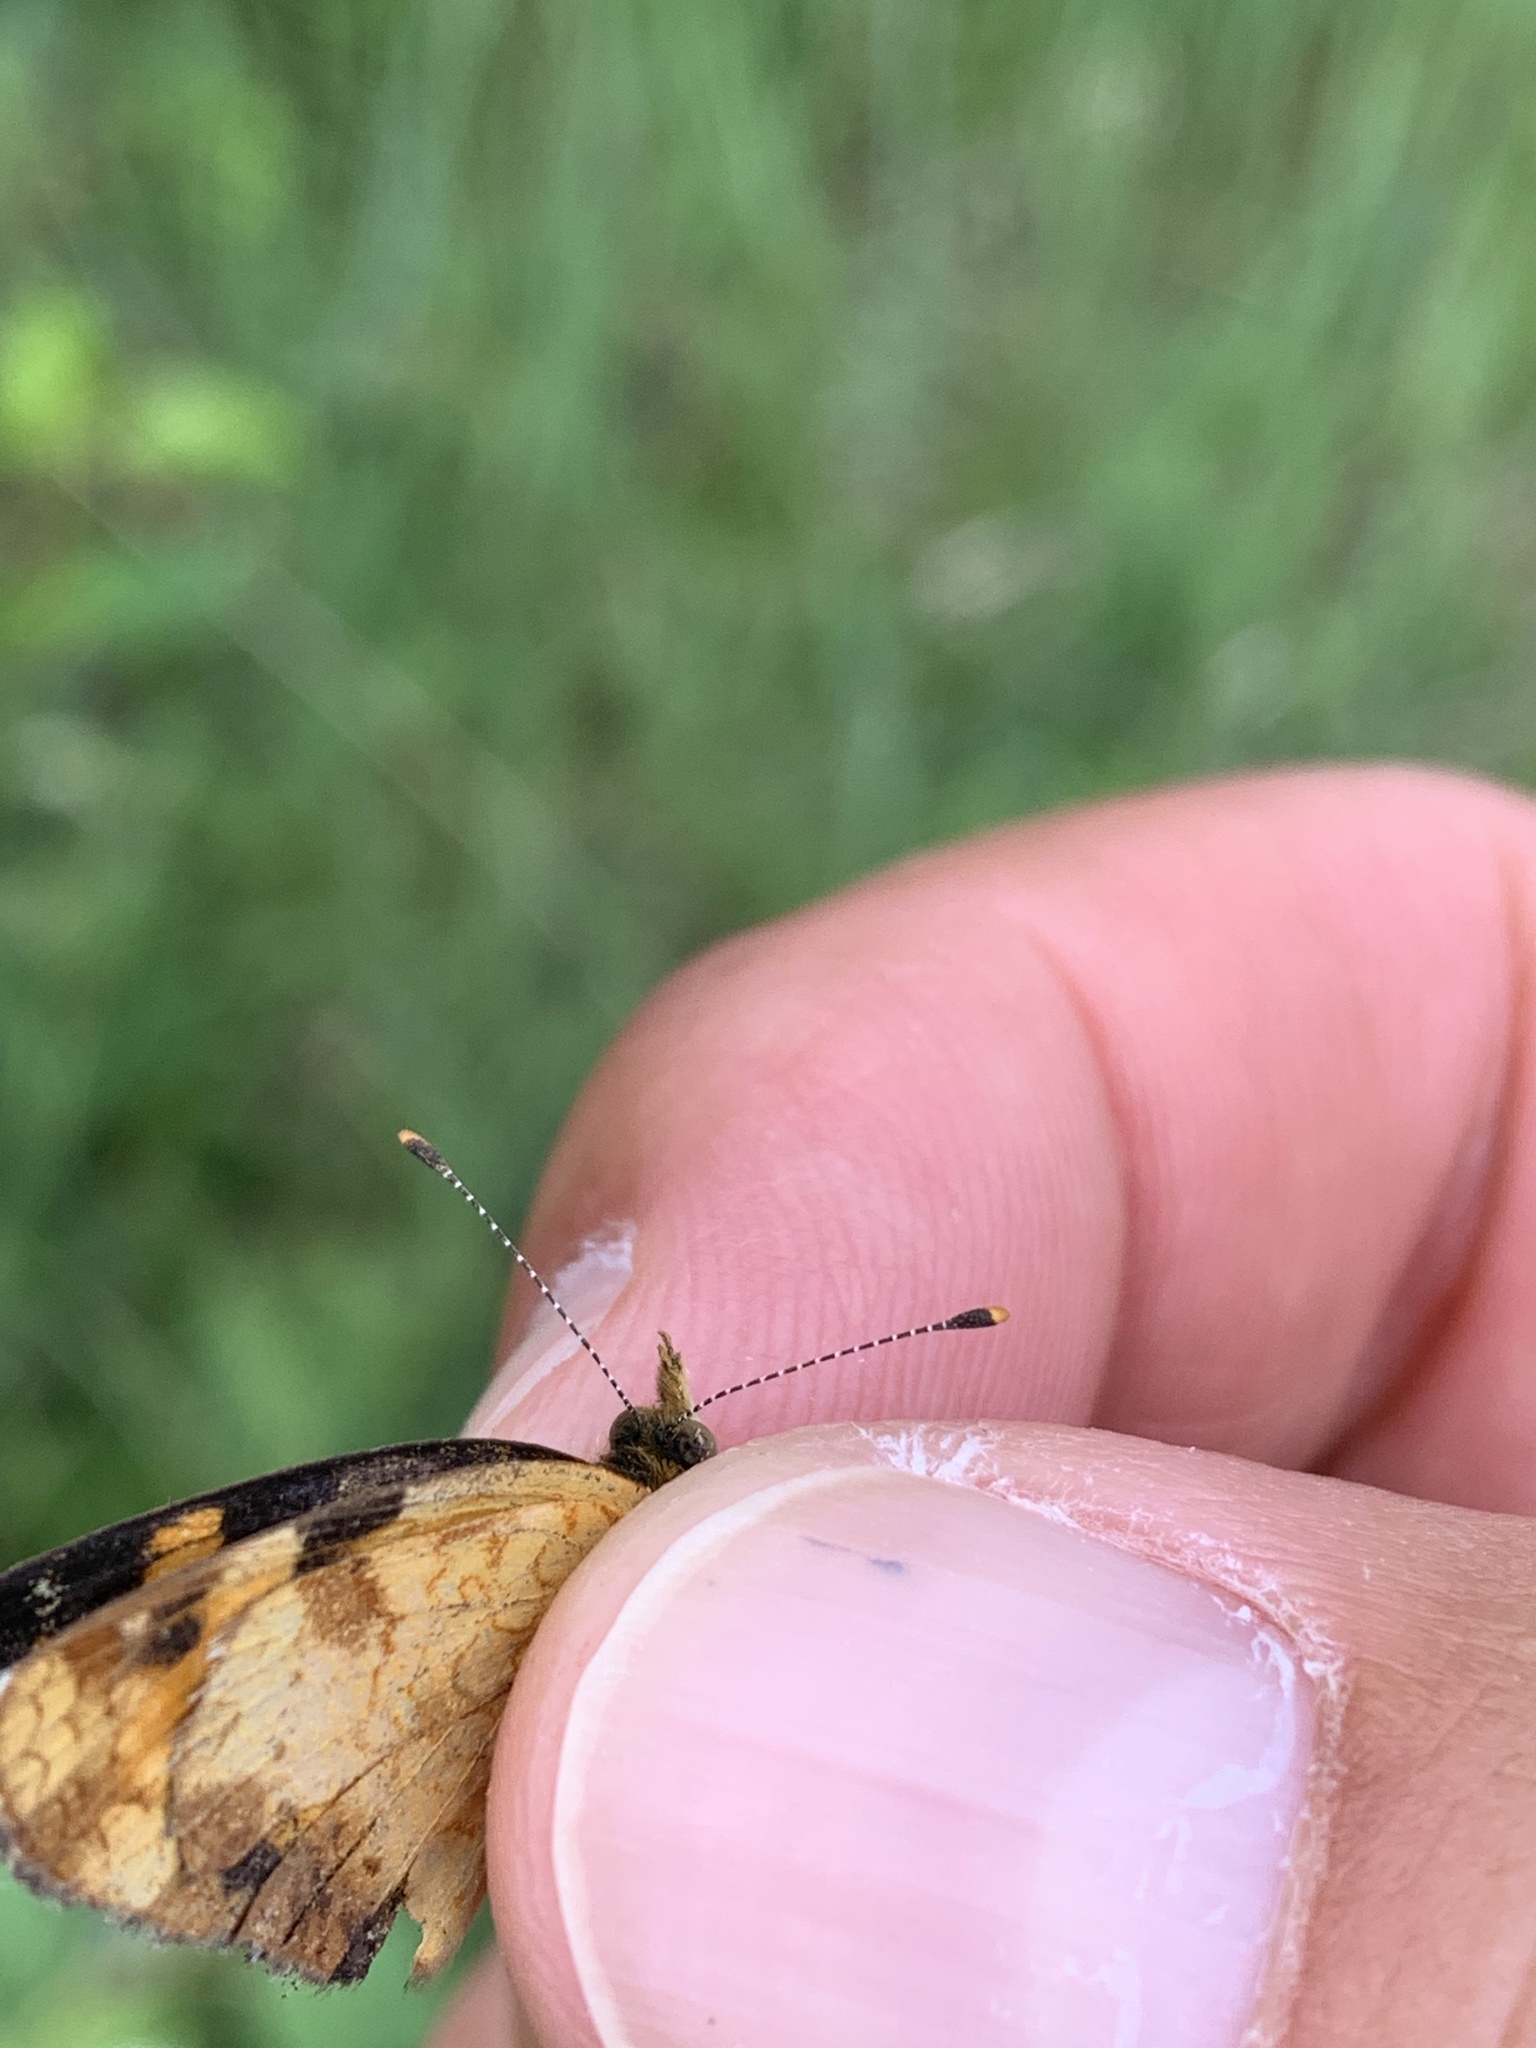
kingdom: Animalia
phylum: Arthropoda
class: Insecta
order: Lepidoptera
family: Nymphalidae
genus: Phyciodes
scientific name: Phyciodes tharos
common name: Pearl crescent
